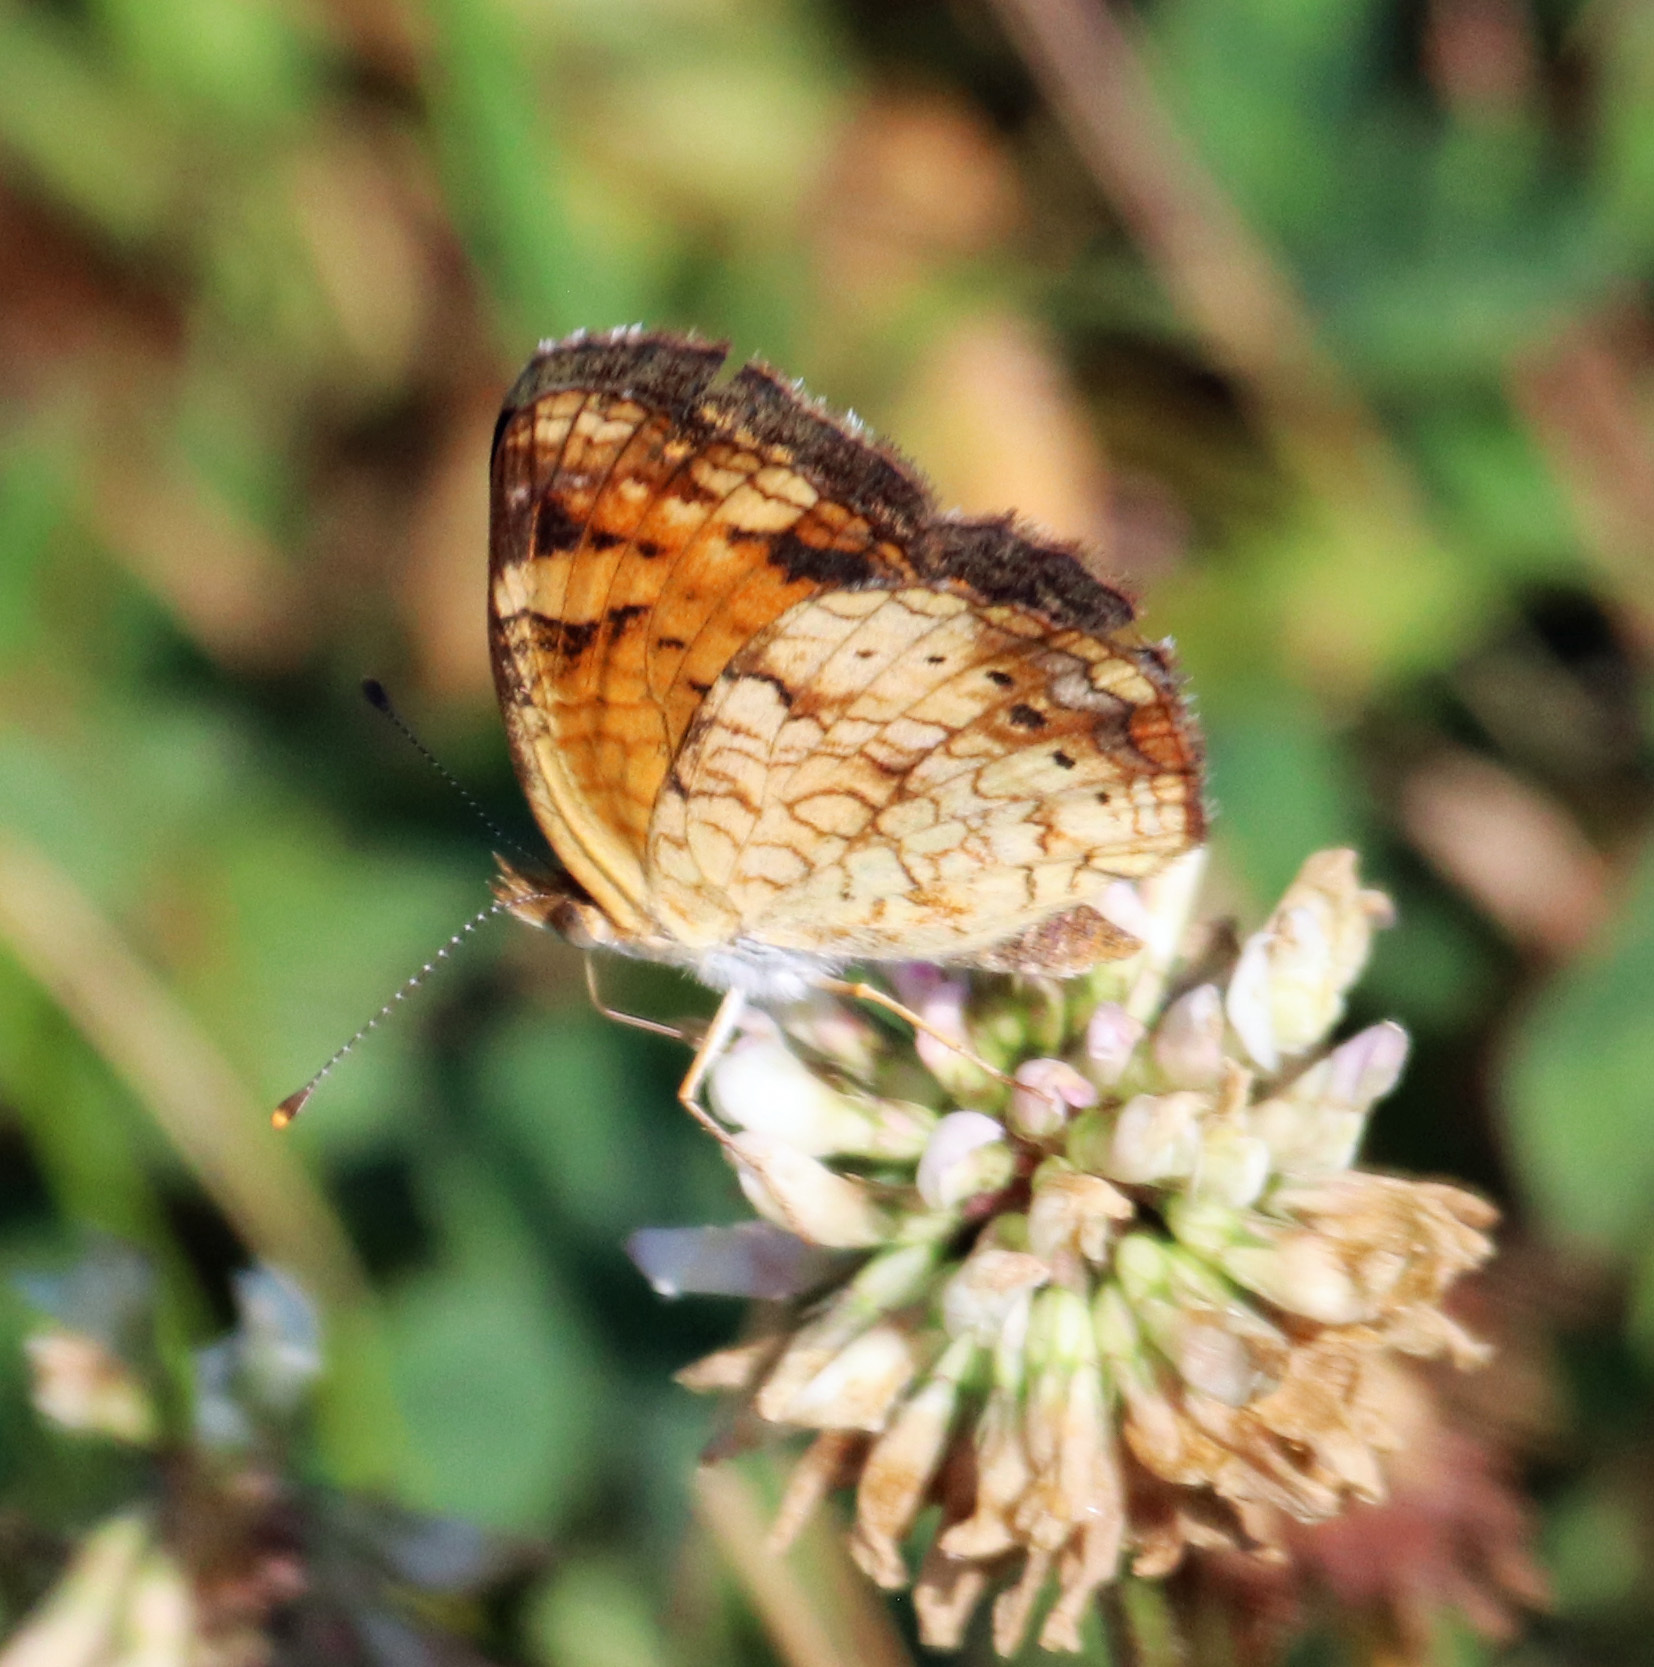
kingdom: Animalia
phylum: Arthropoda
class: Insecta
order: Lepidoptera
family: Nymphalidae
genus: Phyciodes
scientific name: Phyciodes tharos
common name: Pearl crescent
